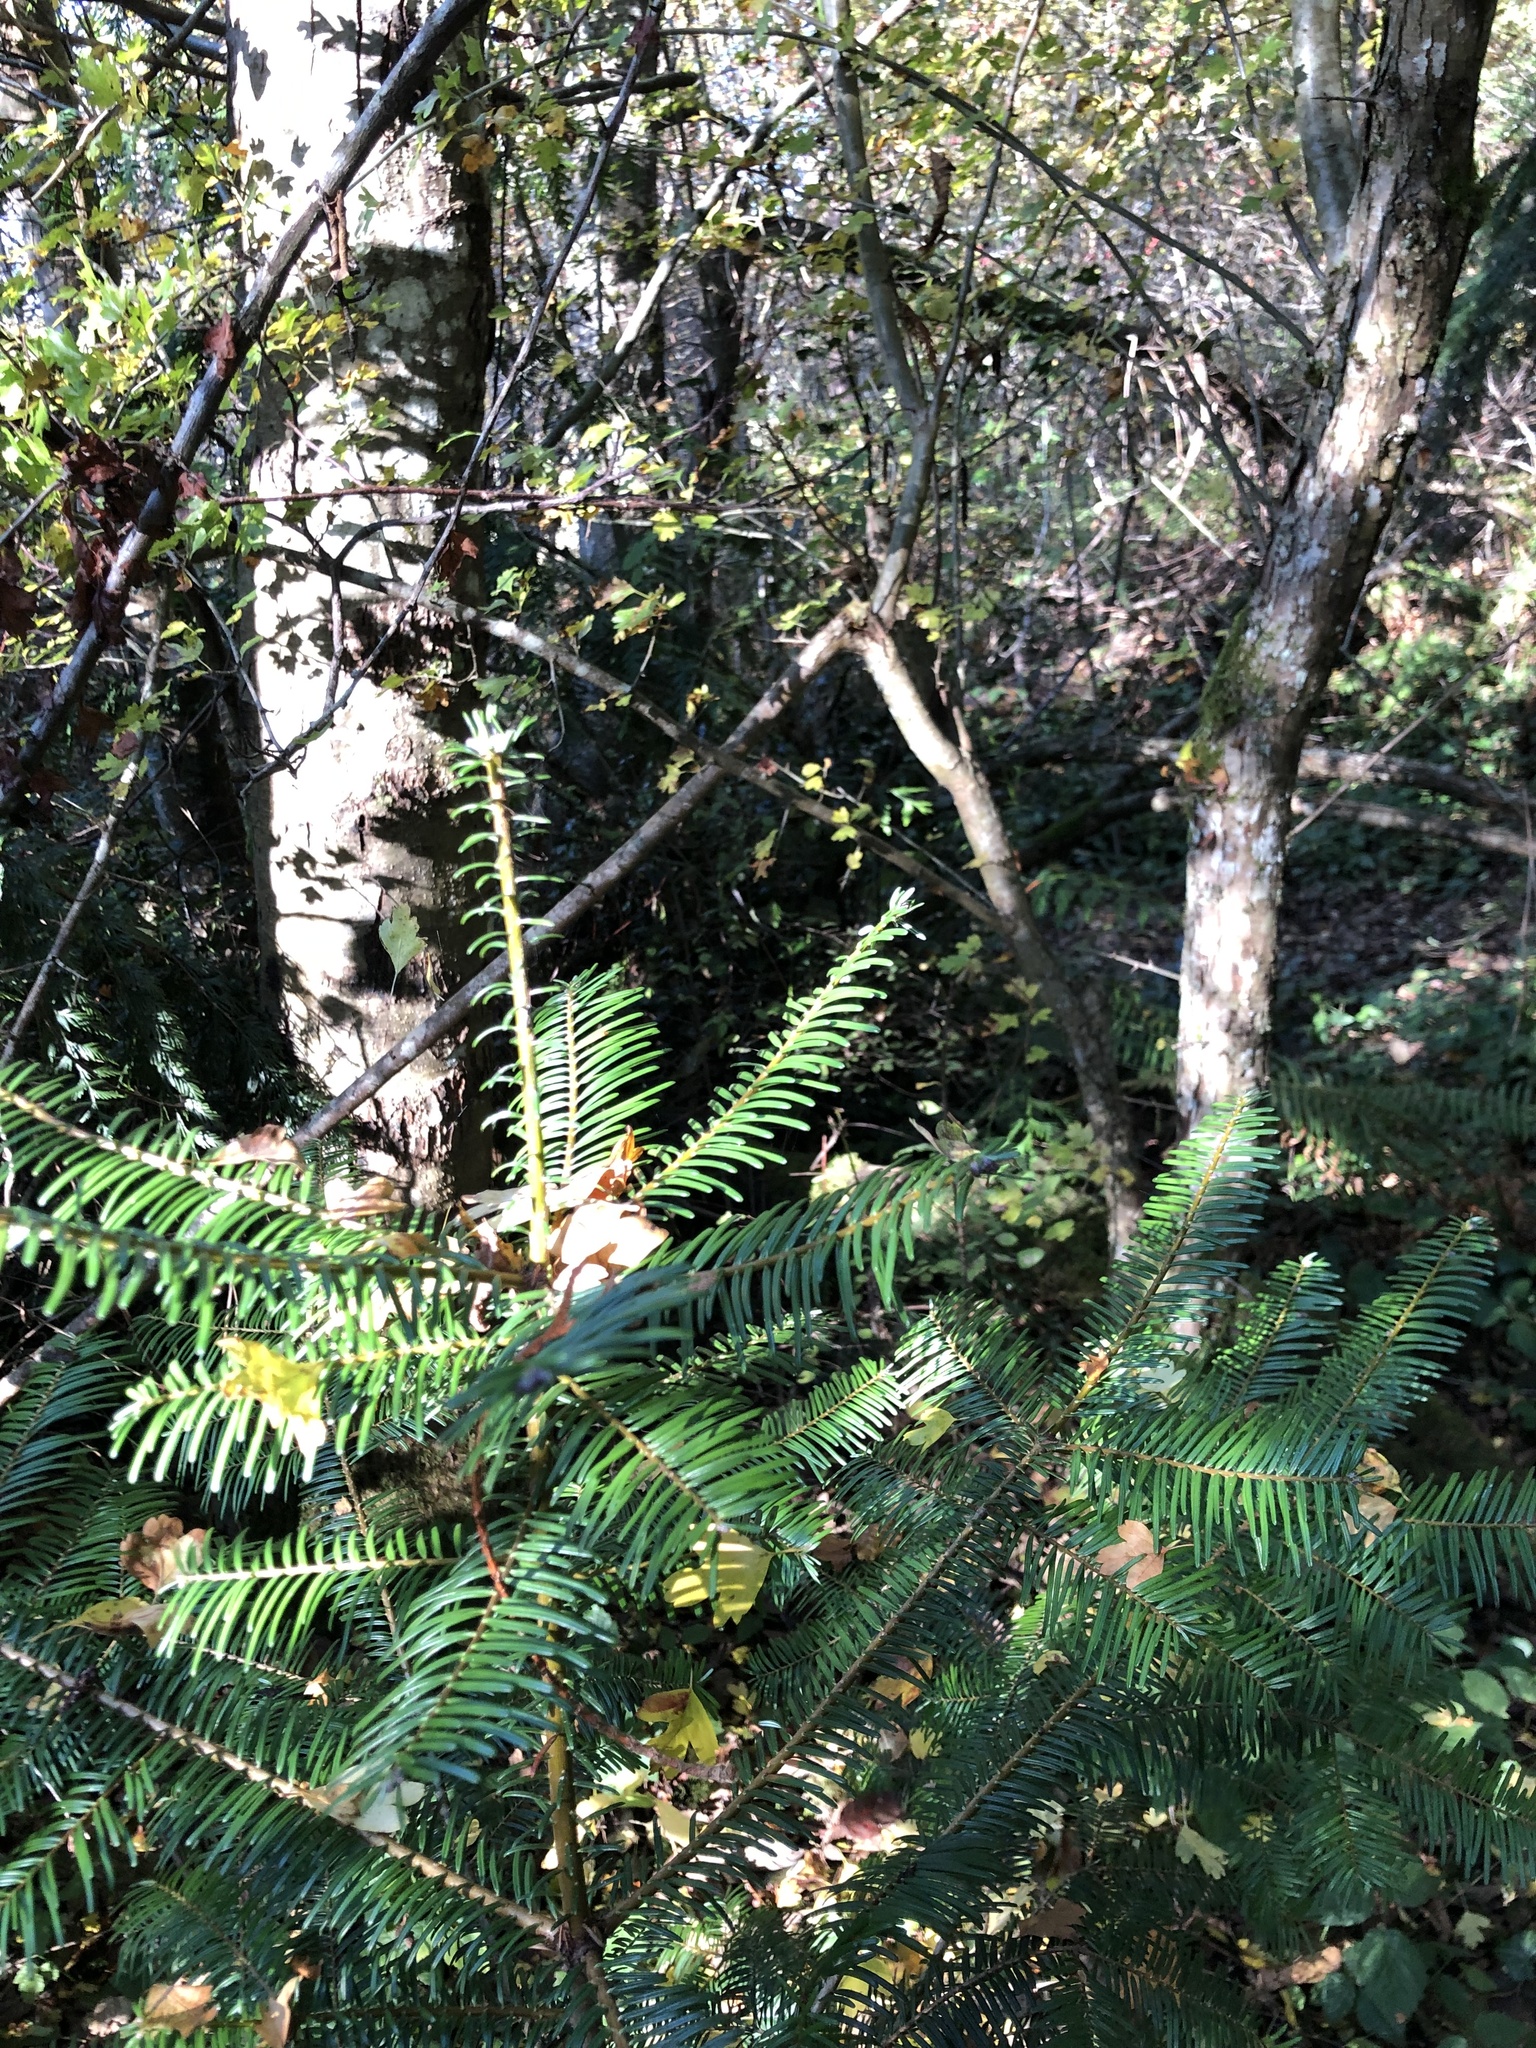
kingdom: Plantae
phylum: Tracheophyta
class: Pinopsida
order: Pinales
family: Pinaceae
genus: Abies
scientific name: Abies grandis
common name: Giant fir
